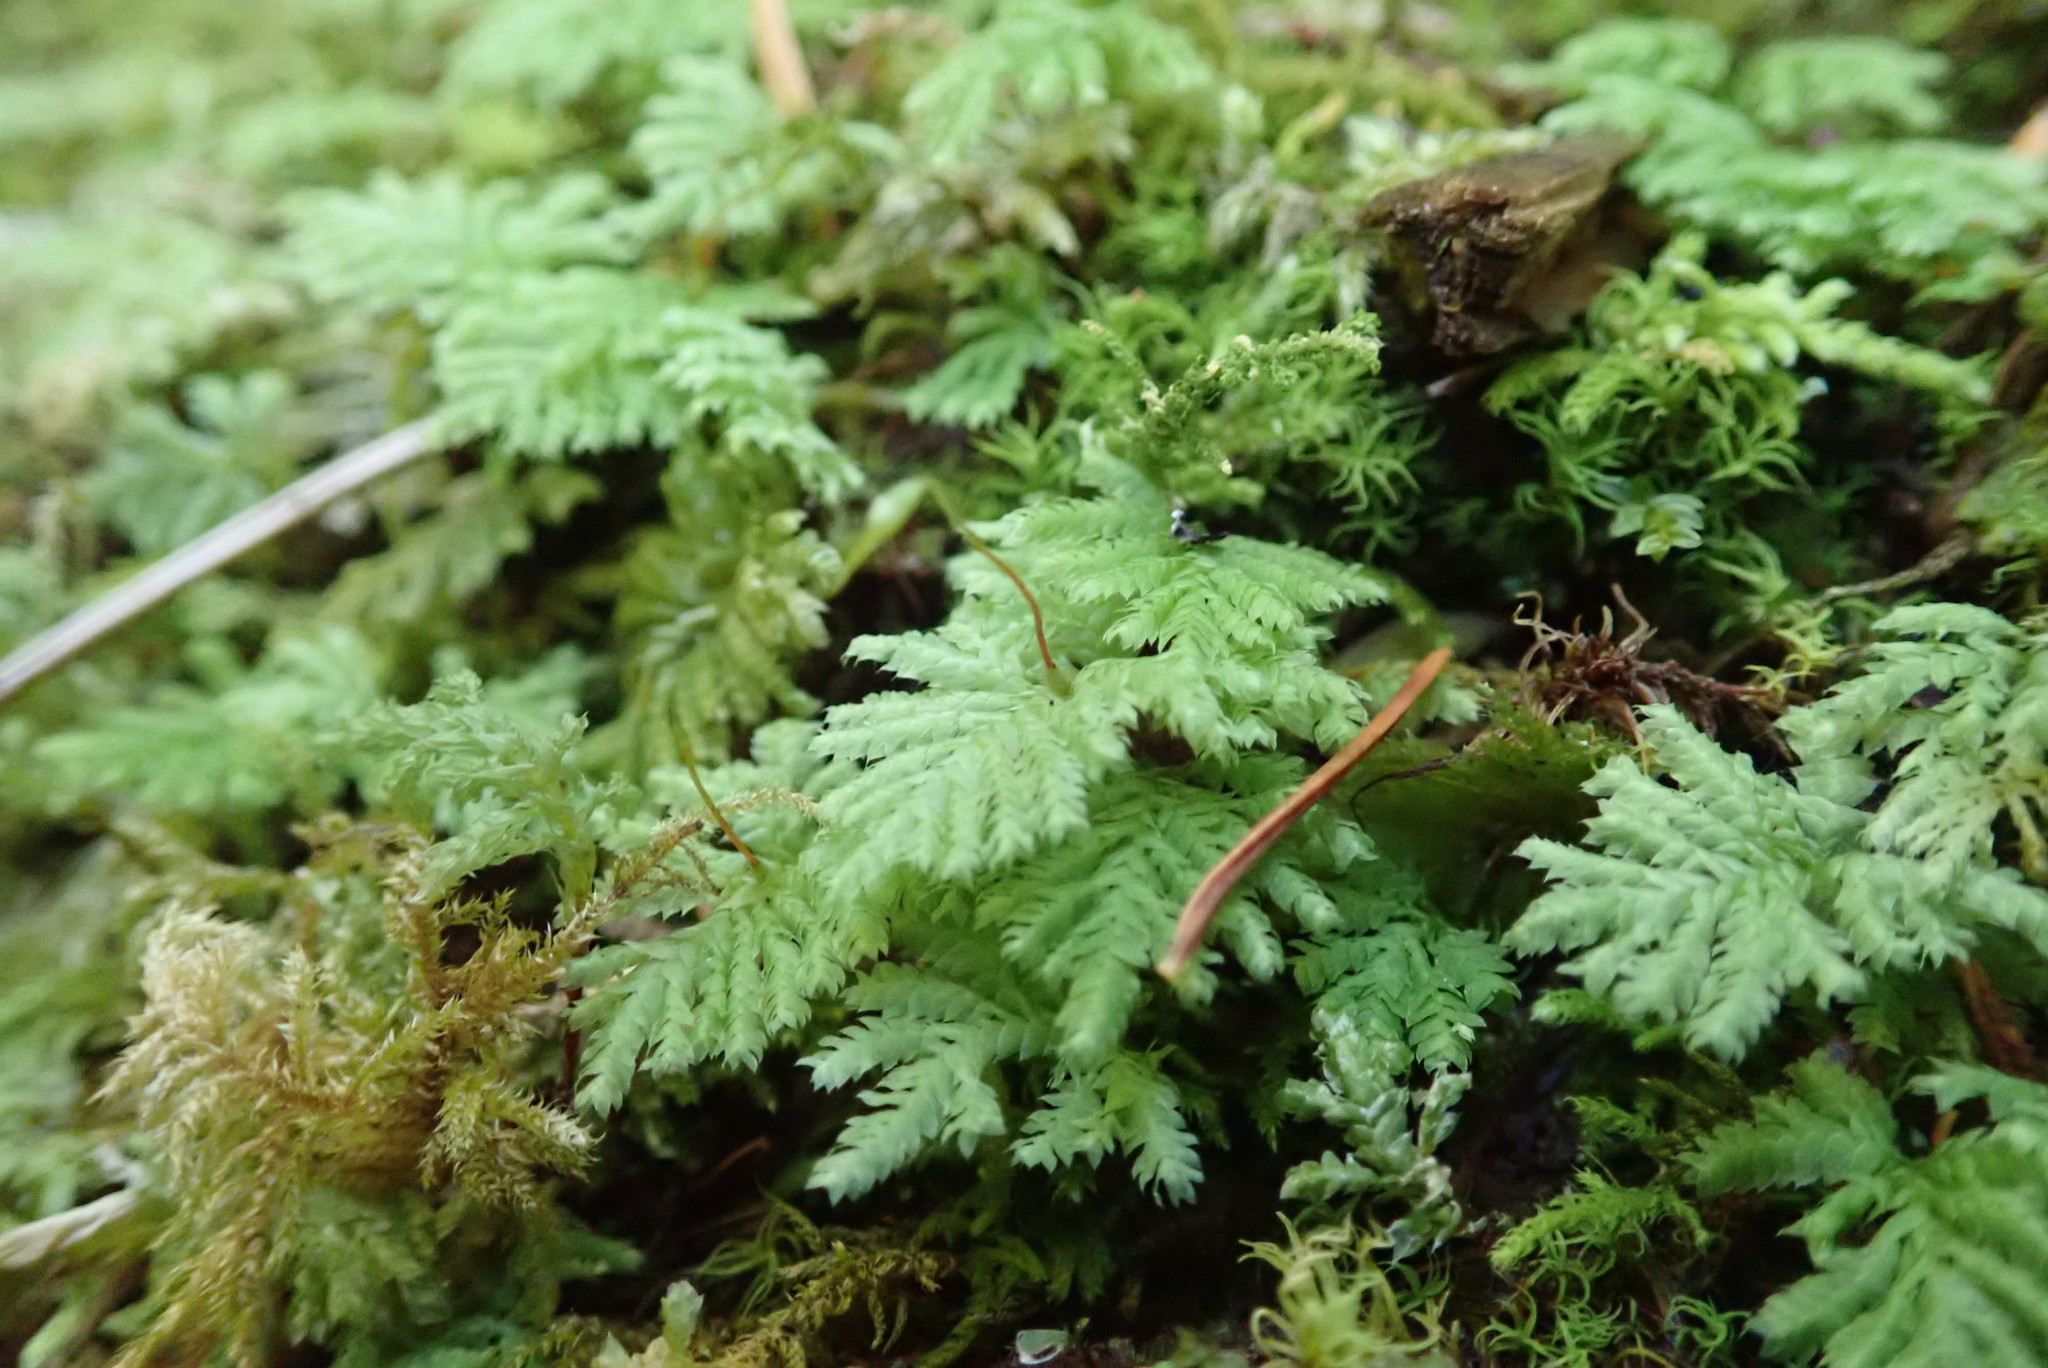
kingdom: Plantae
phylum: Bryophyta
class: Bryopsida
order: Hypopterygiales
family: Hypopterygiaceae
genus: Hypopterygium
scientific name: Hypopterygium flavolimbatum
